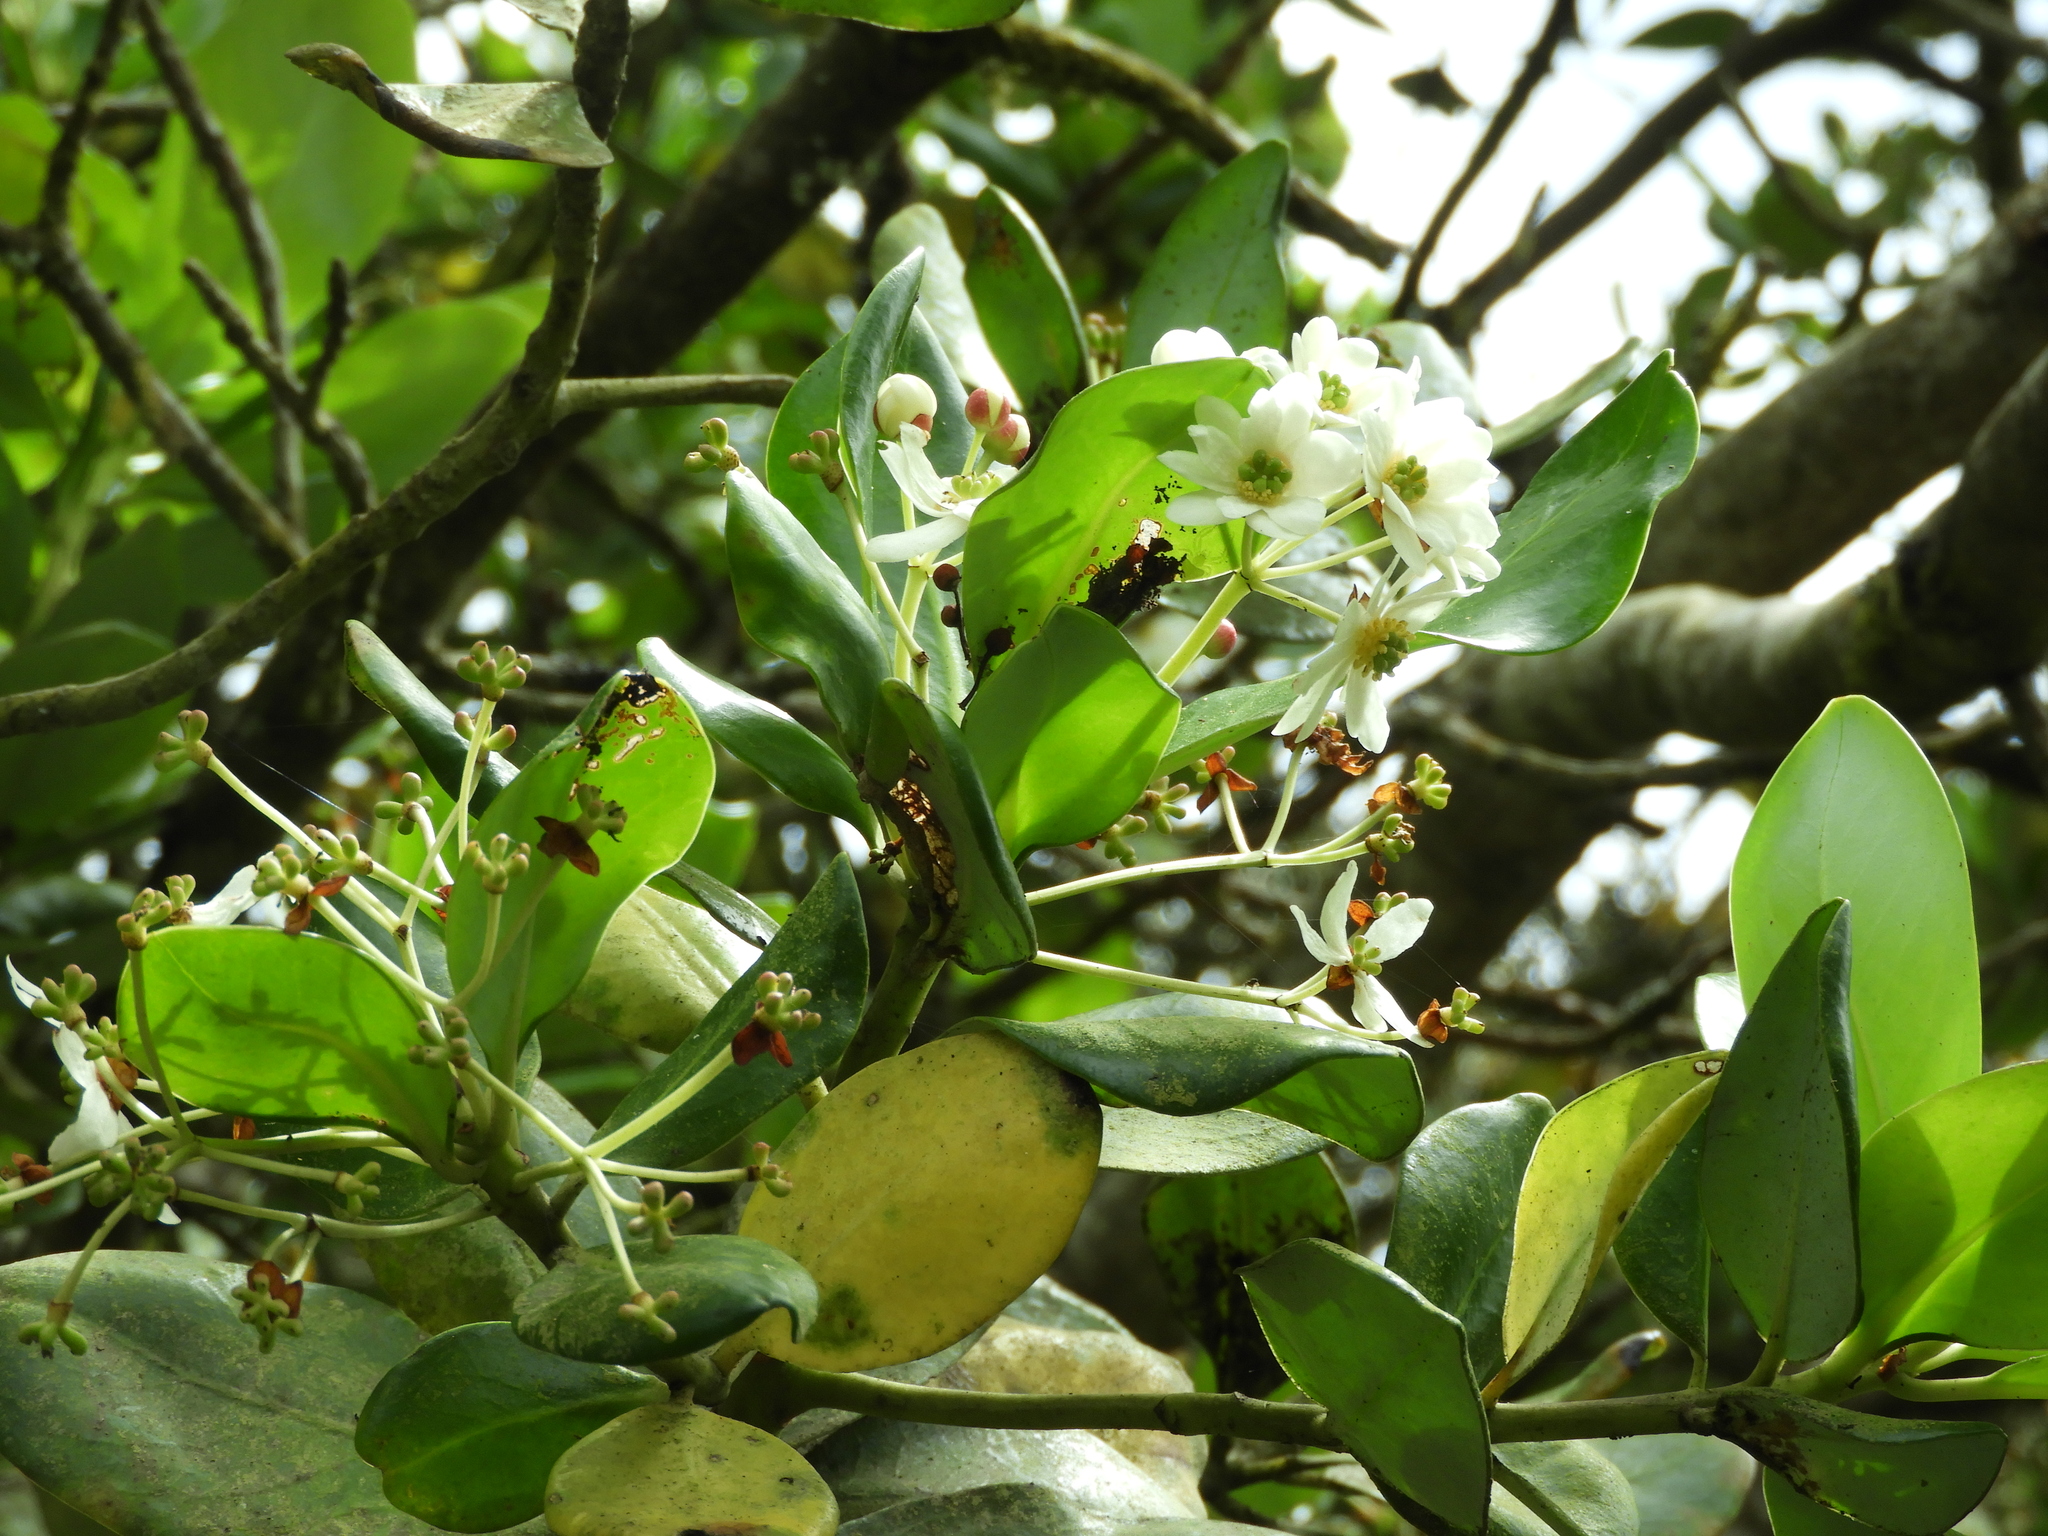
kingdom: Plantae
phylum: Tracheophyta
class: Magnoliopsida
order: Canellales
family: Winteraceae
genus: Drimys
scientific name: Drimys winteri
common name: Winter's-bark
